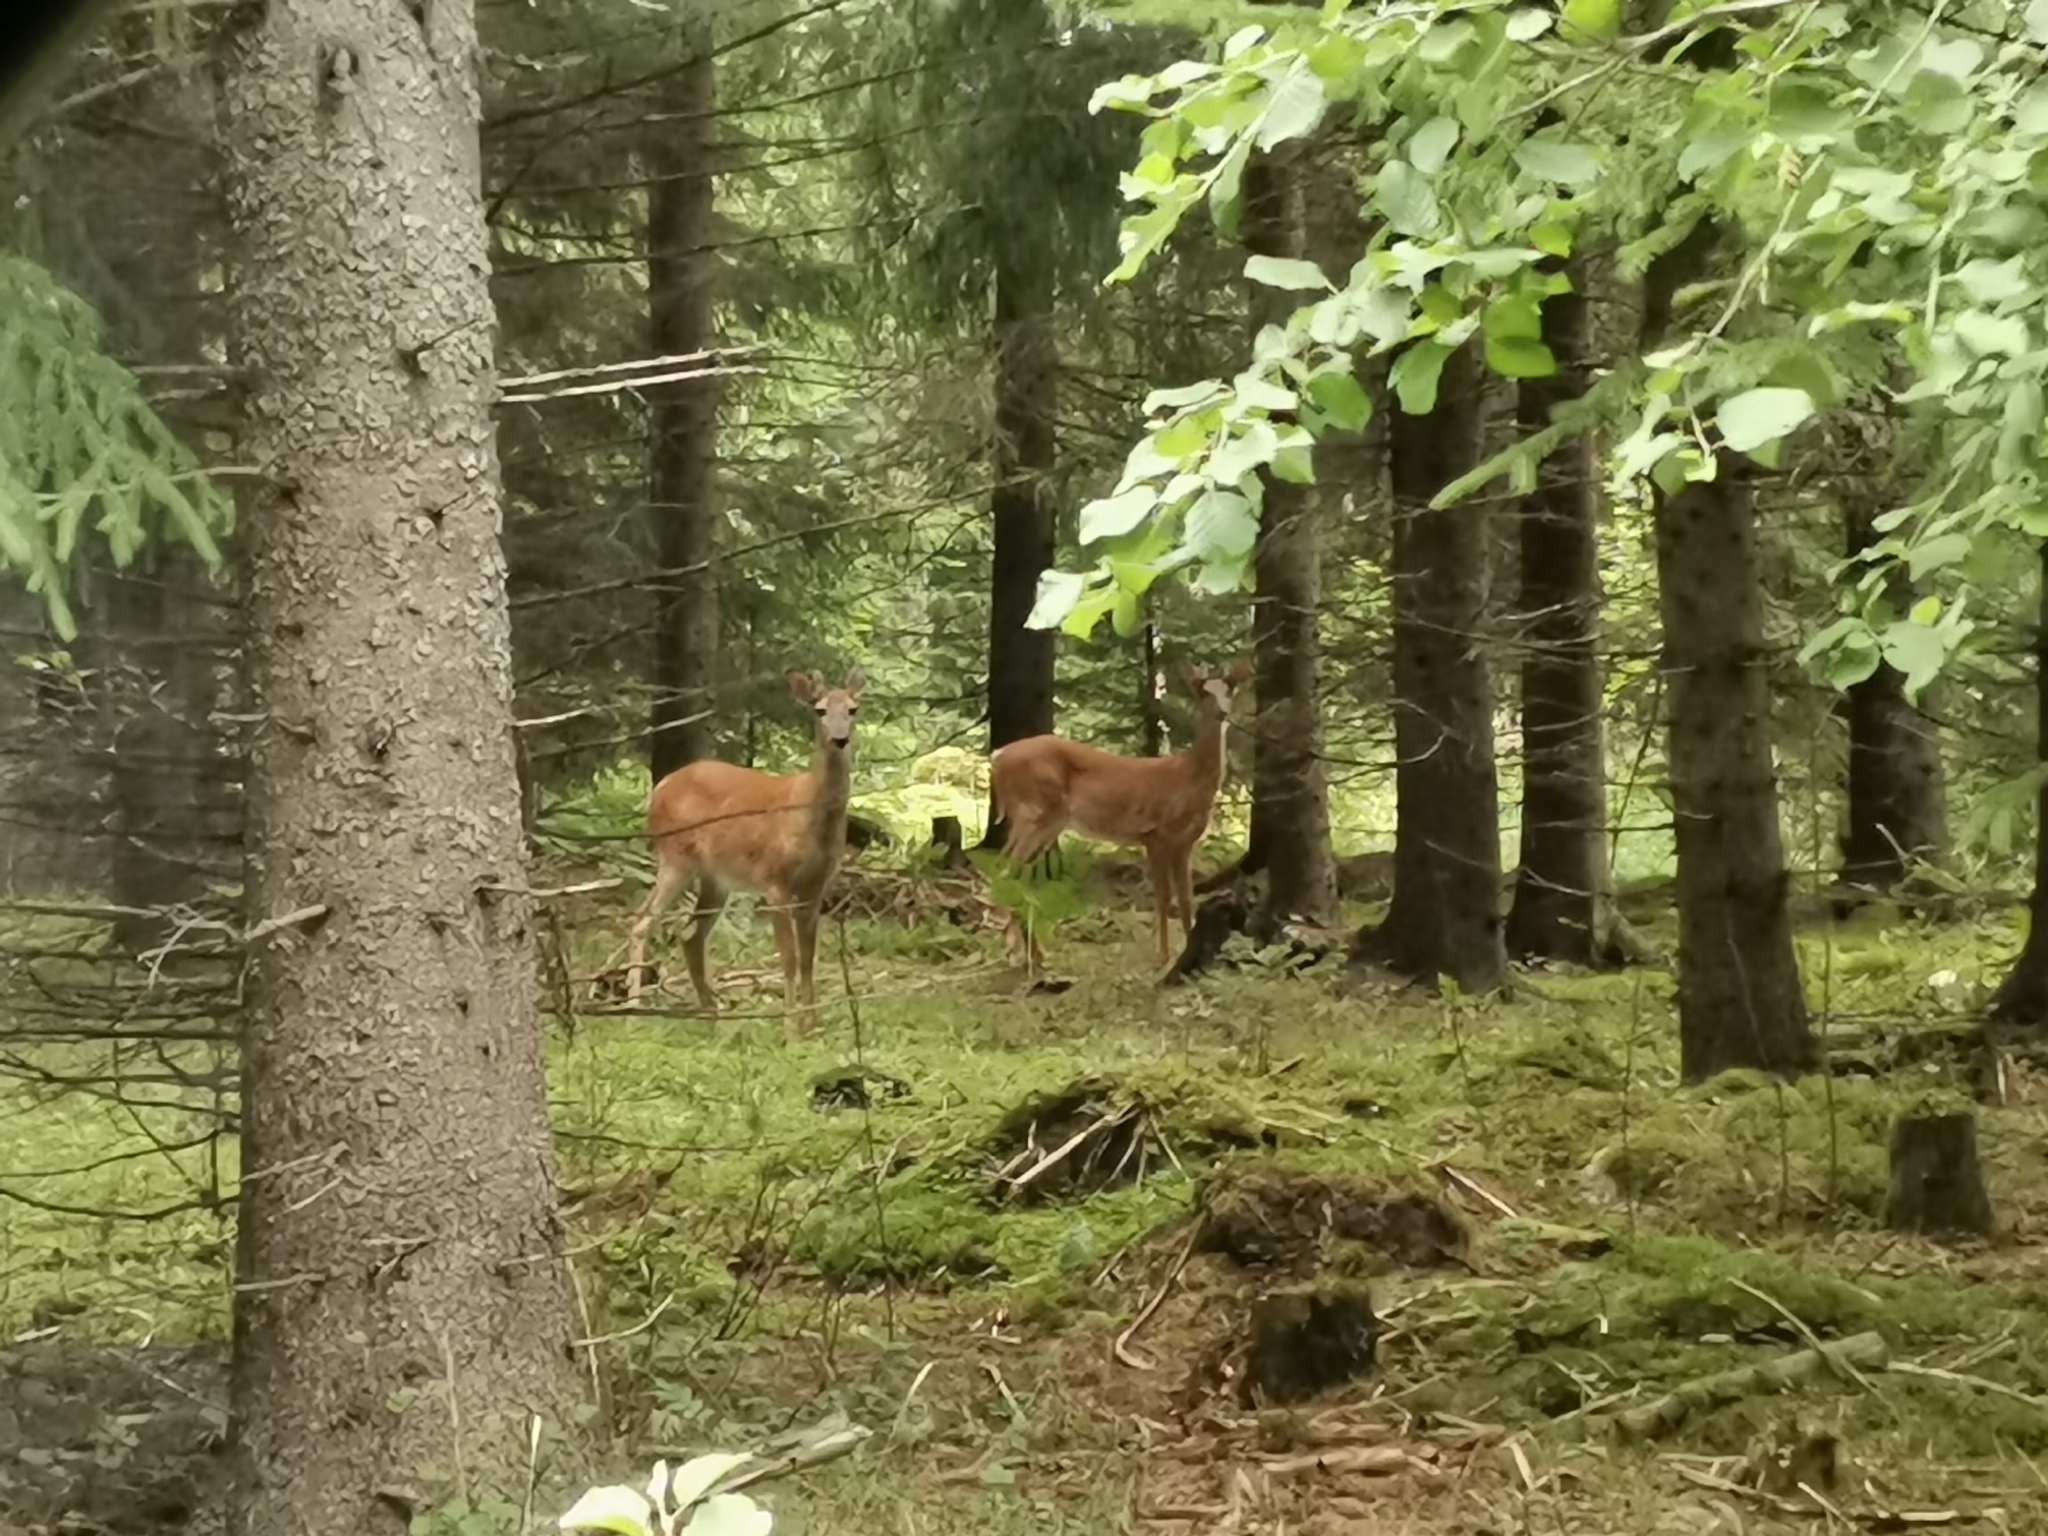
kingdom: Animalia
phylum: Chordata
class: Mammalia
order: Artiodactyla
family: Cervidae
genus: Odocoileus
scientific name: Odocoileus virginianus
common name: White-tailed deer
